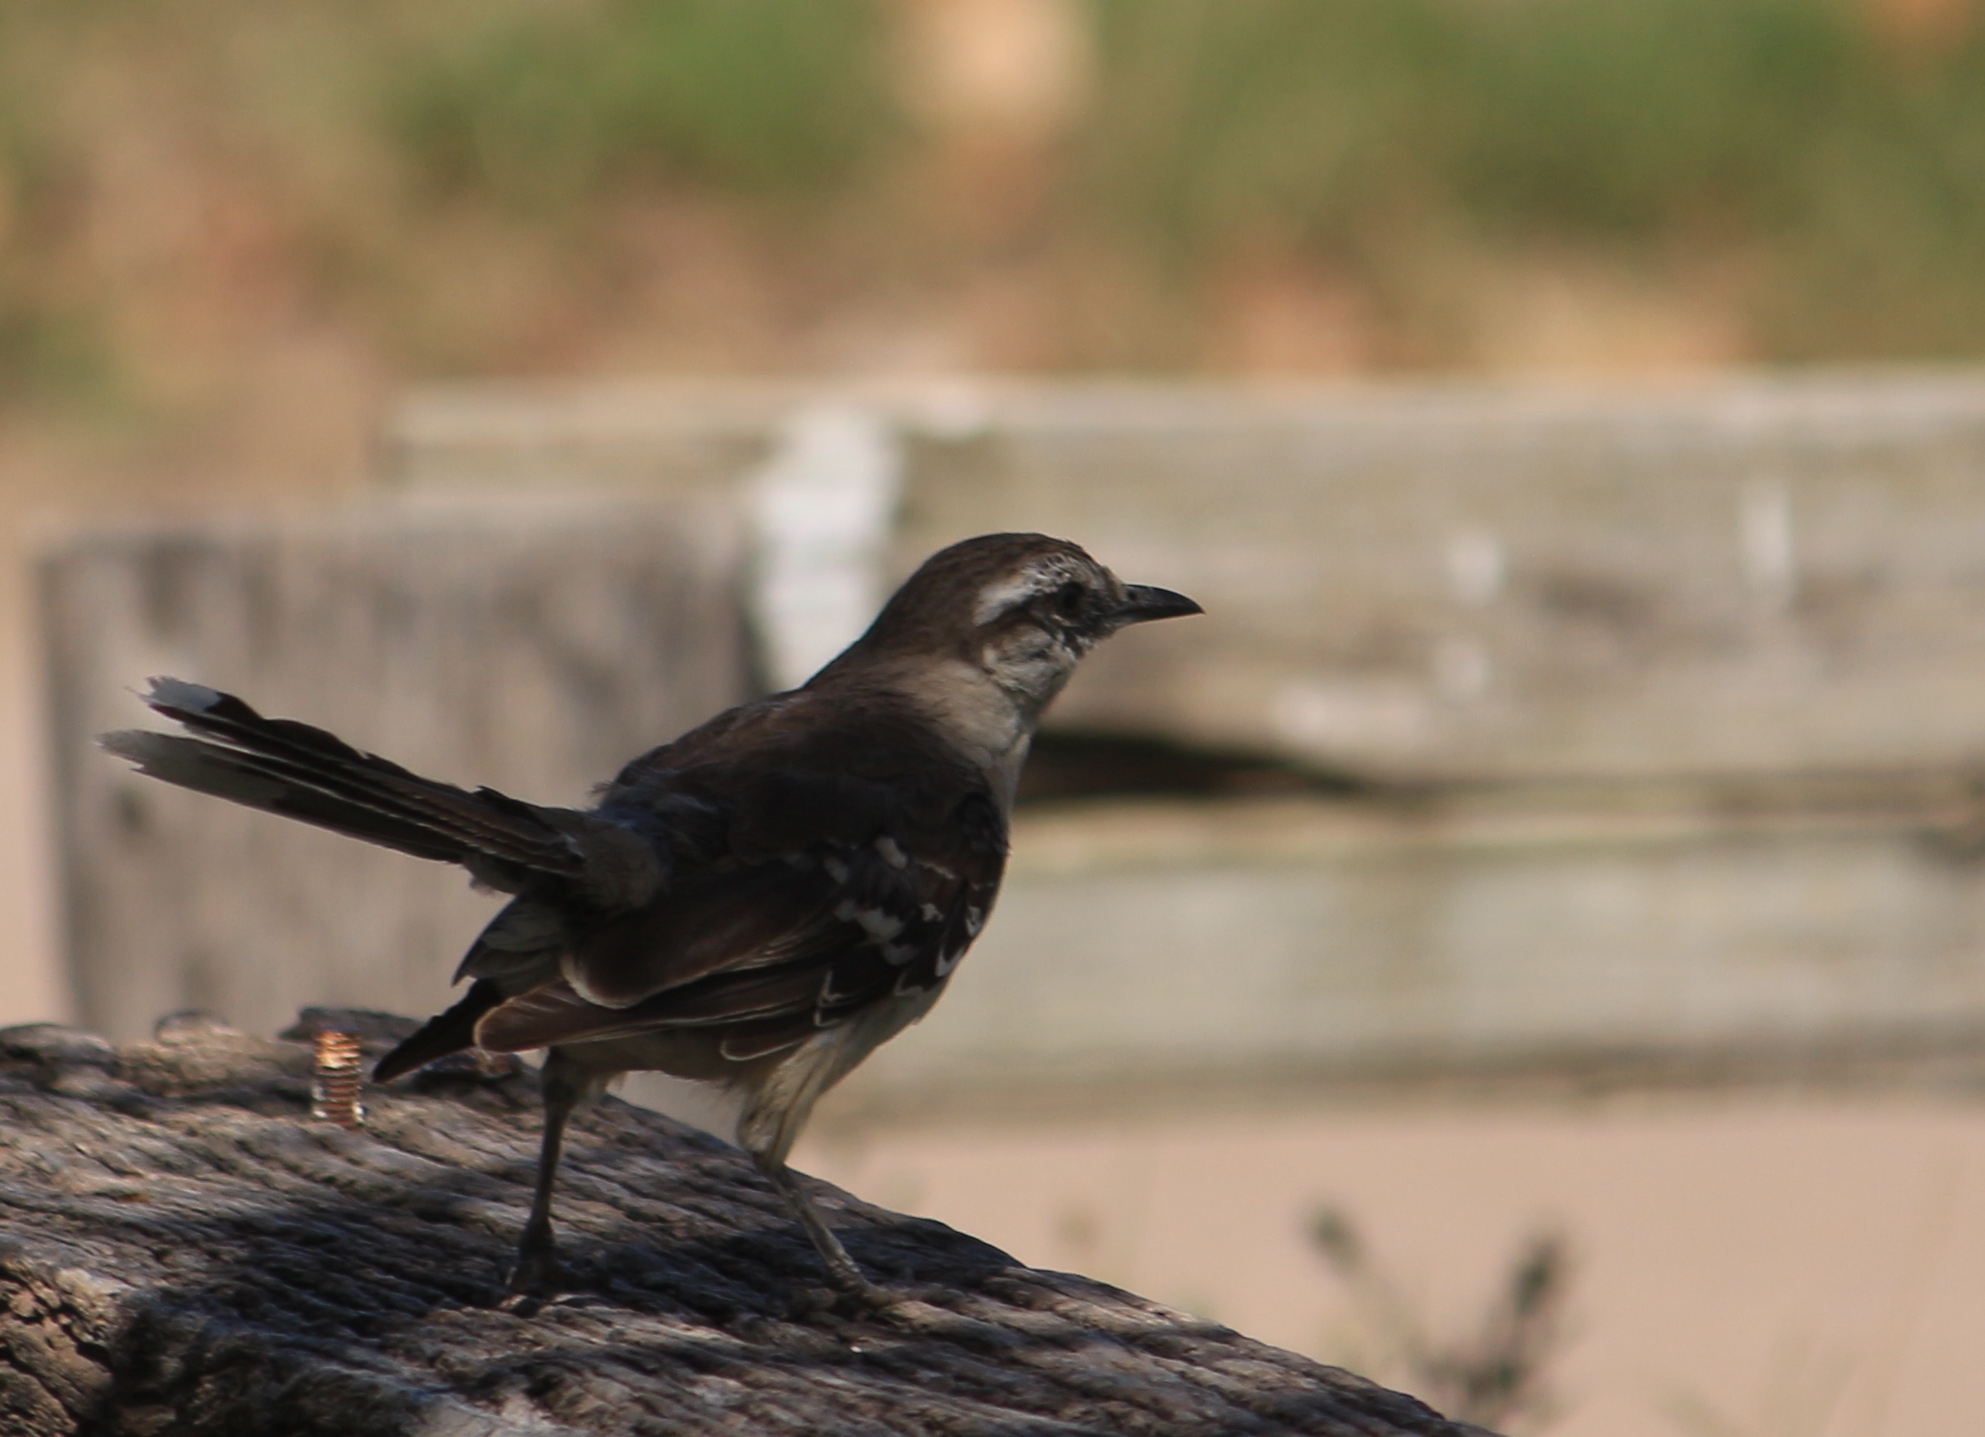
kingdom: Animalia
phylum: Chordata
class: Aves
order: Passeriformes
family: Mimidae
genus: Mimus
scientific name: Mimus saturninus
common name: Chalk-browed mockingbird
